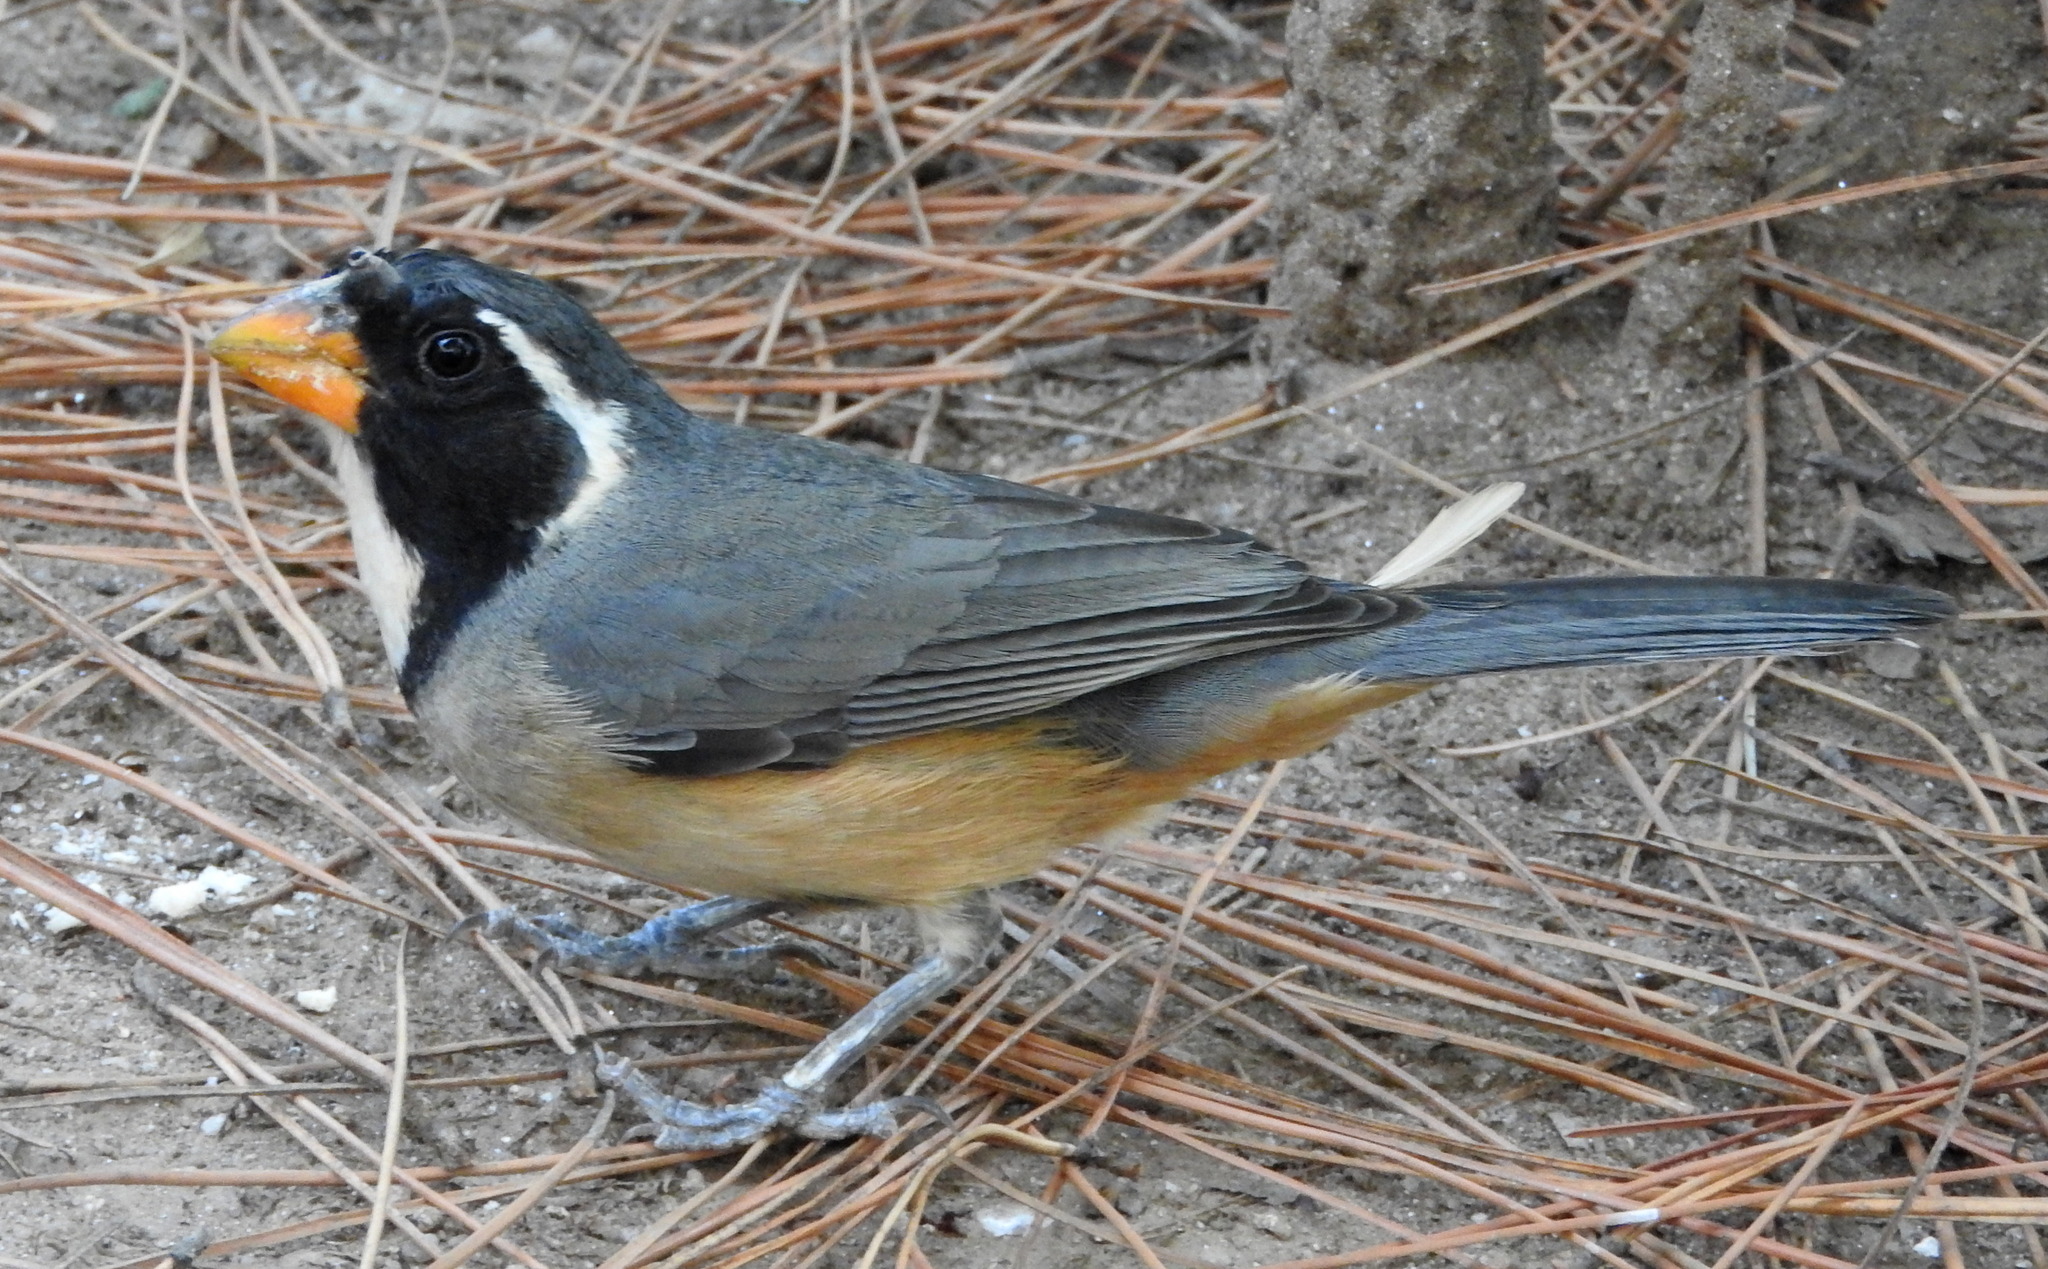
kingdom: Animalia
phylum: Chordata
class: Aves
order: Passeriformes
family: Thraupidae
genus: Saltator
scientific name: Saltator aurantiirostris
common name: Golden-billed saltator
